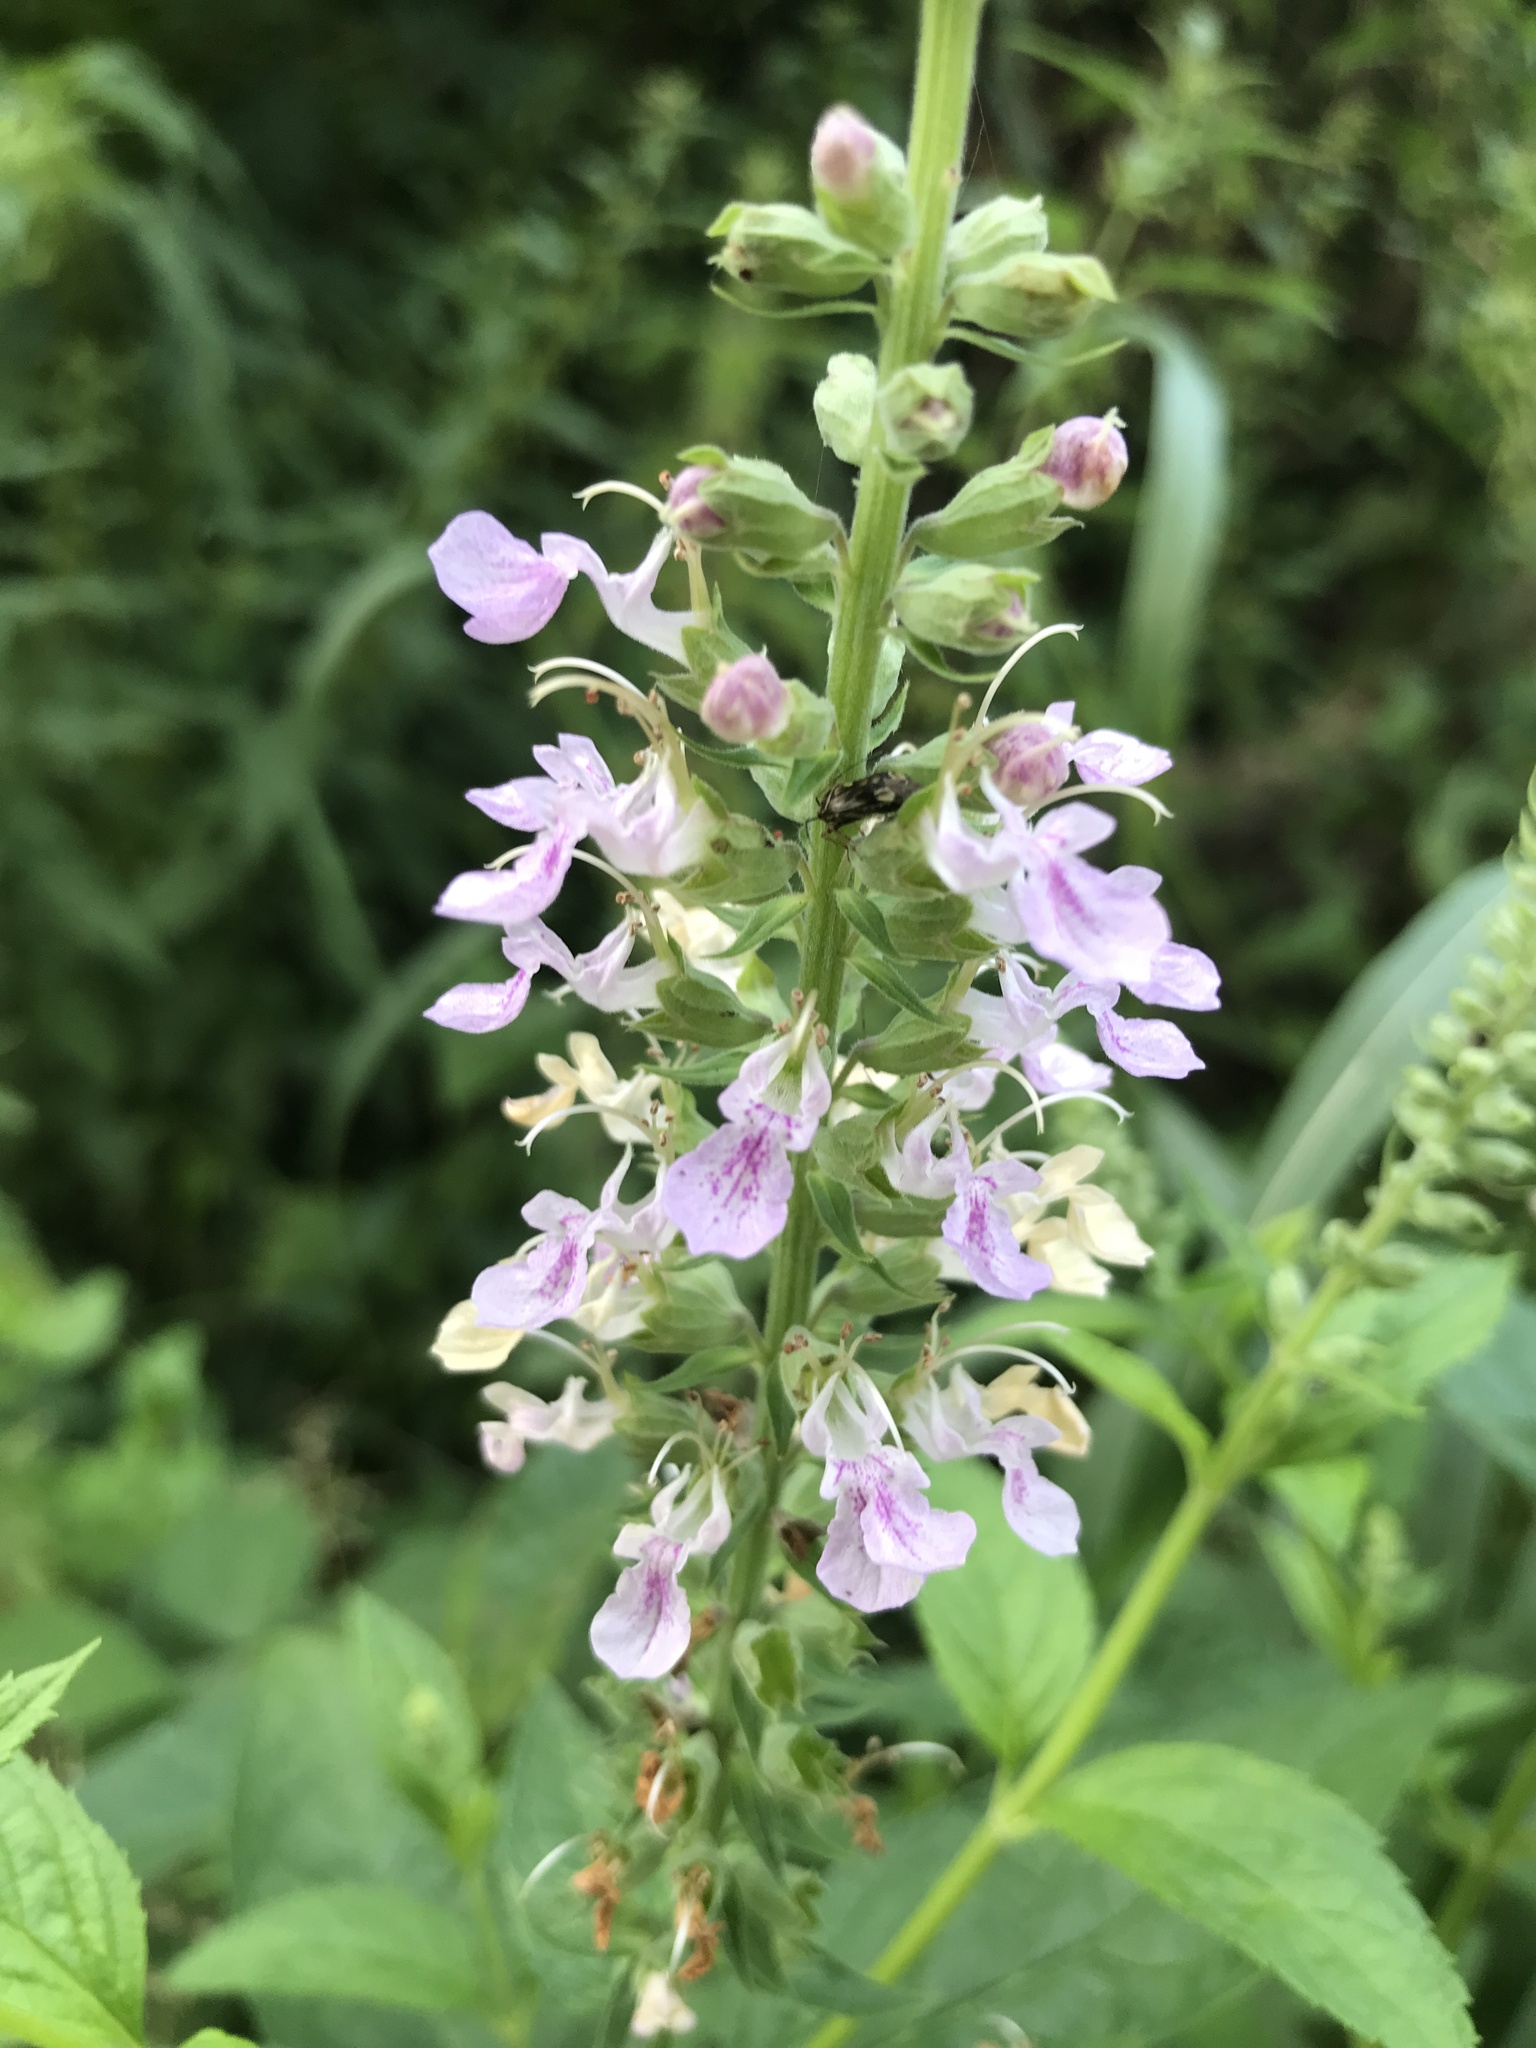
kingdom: Plantae
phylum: Tracheophyta
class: Magnoliopsida
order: Lamiales
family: Lamiaceae
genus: Teucrium
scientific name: Teucrium canadense
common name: American germander
